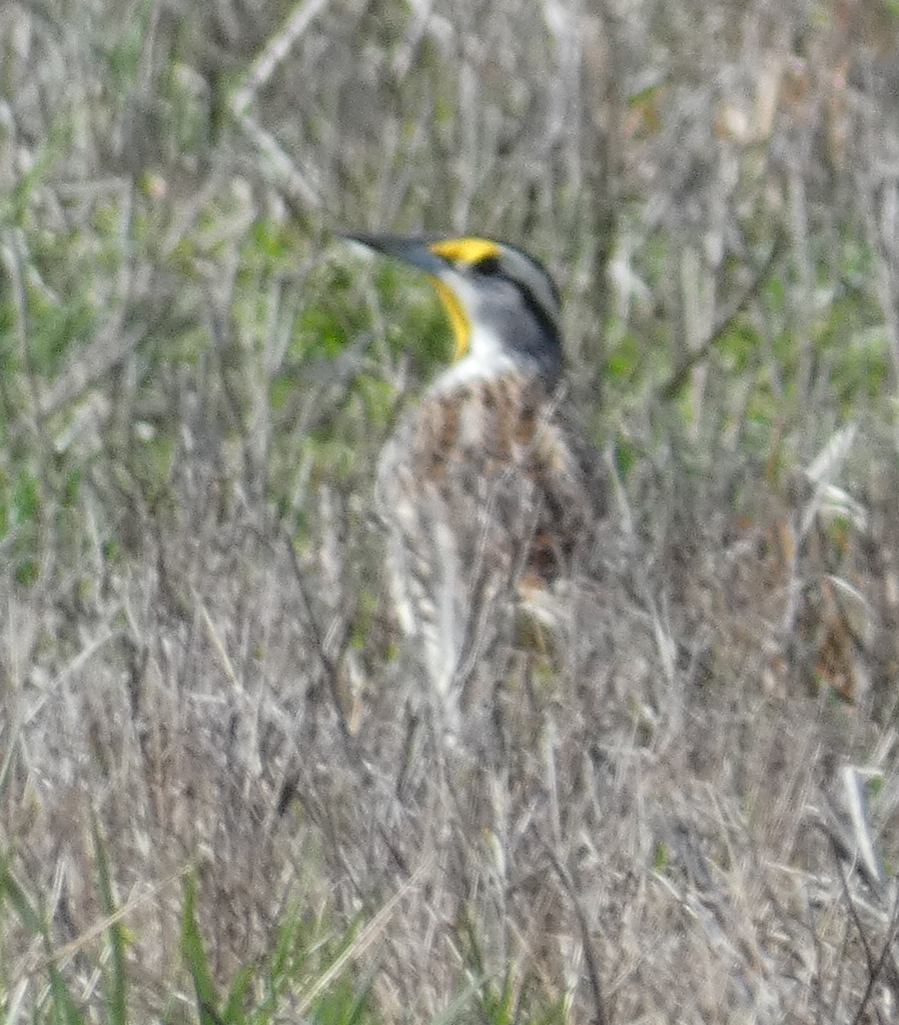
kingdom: Animalia
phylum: Chordata
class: Aves
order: Passeriformes
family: Icteridae
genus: Sturnella
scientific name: Sturnella magna
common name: Eastern meadowlark
